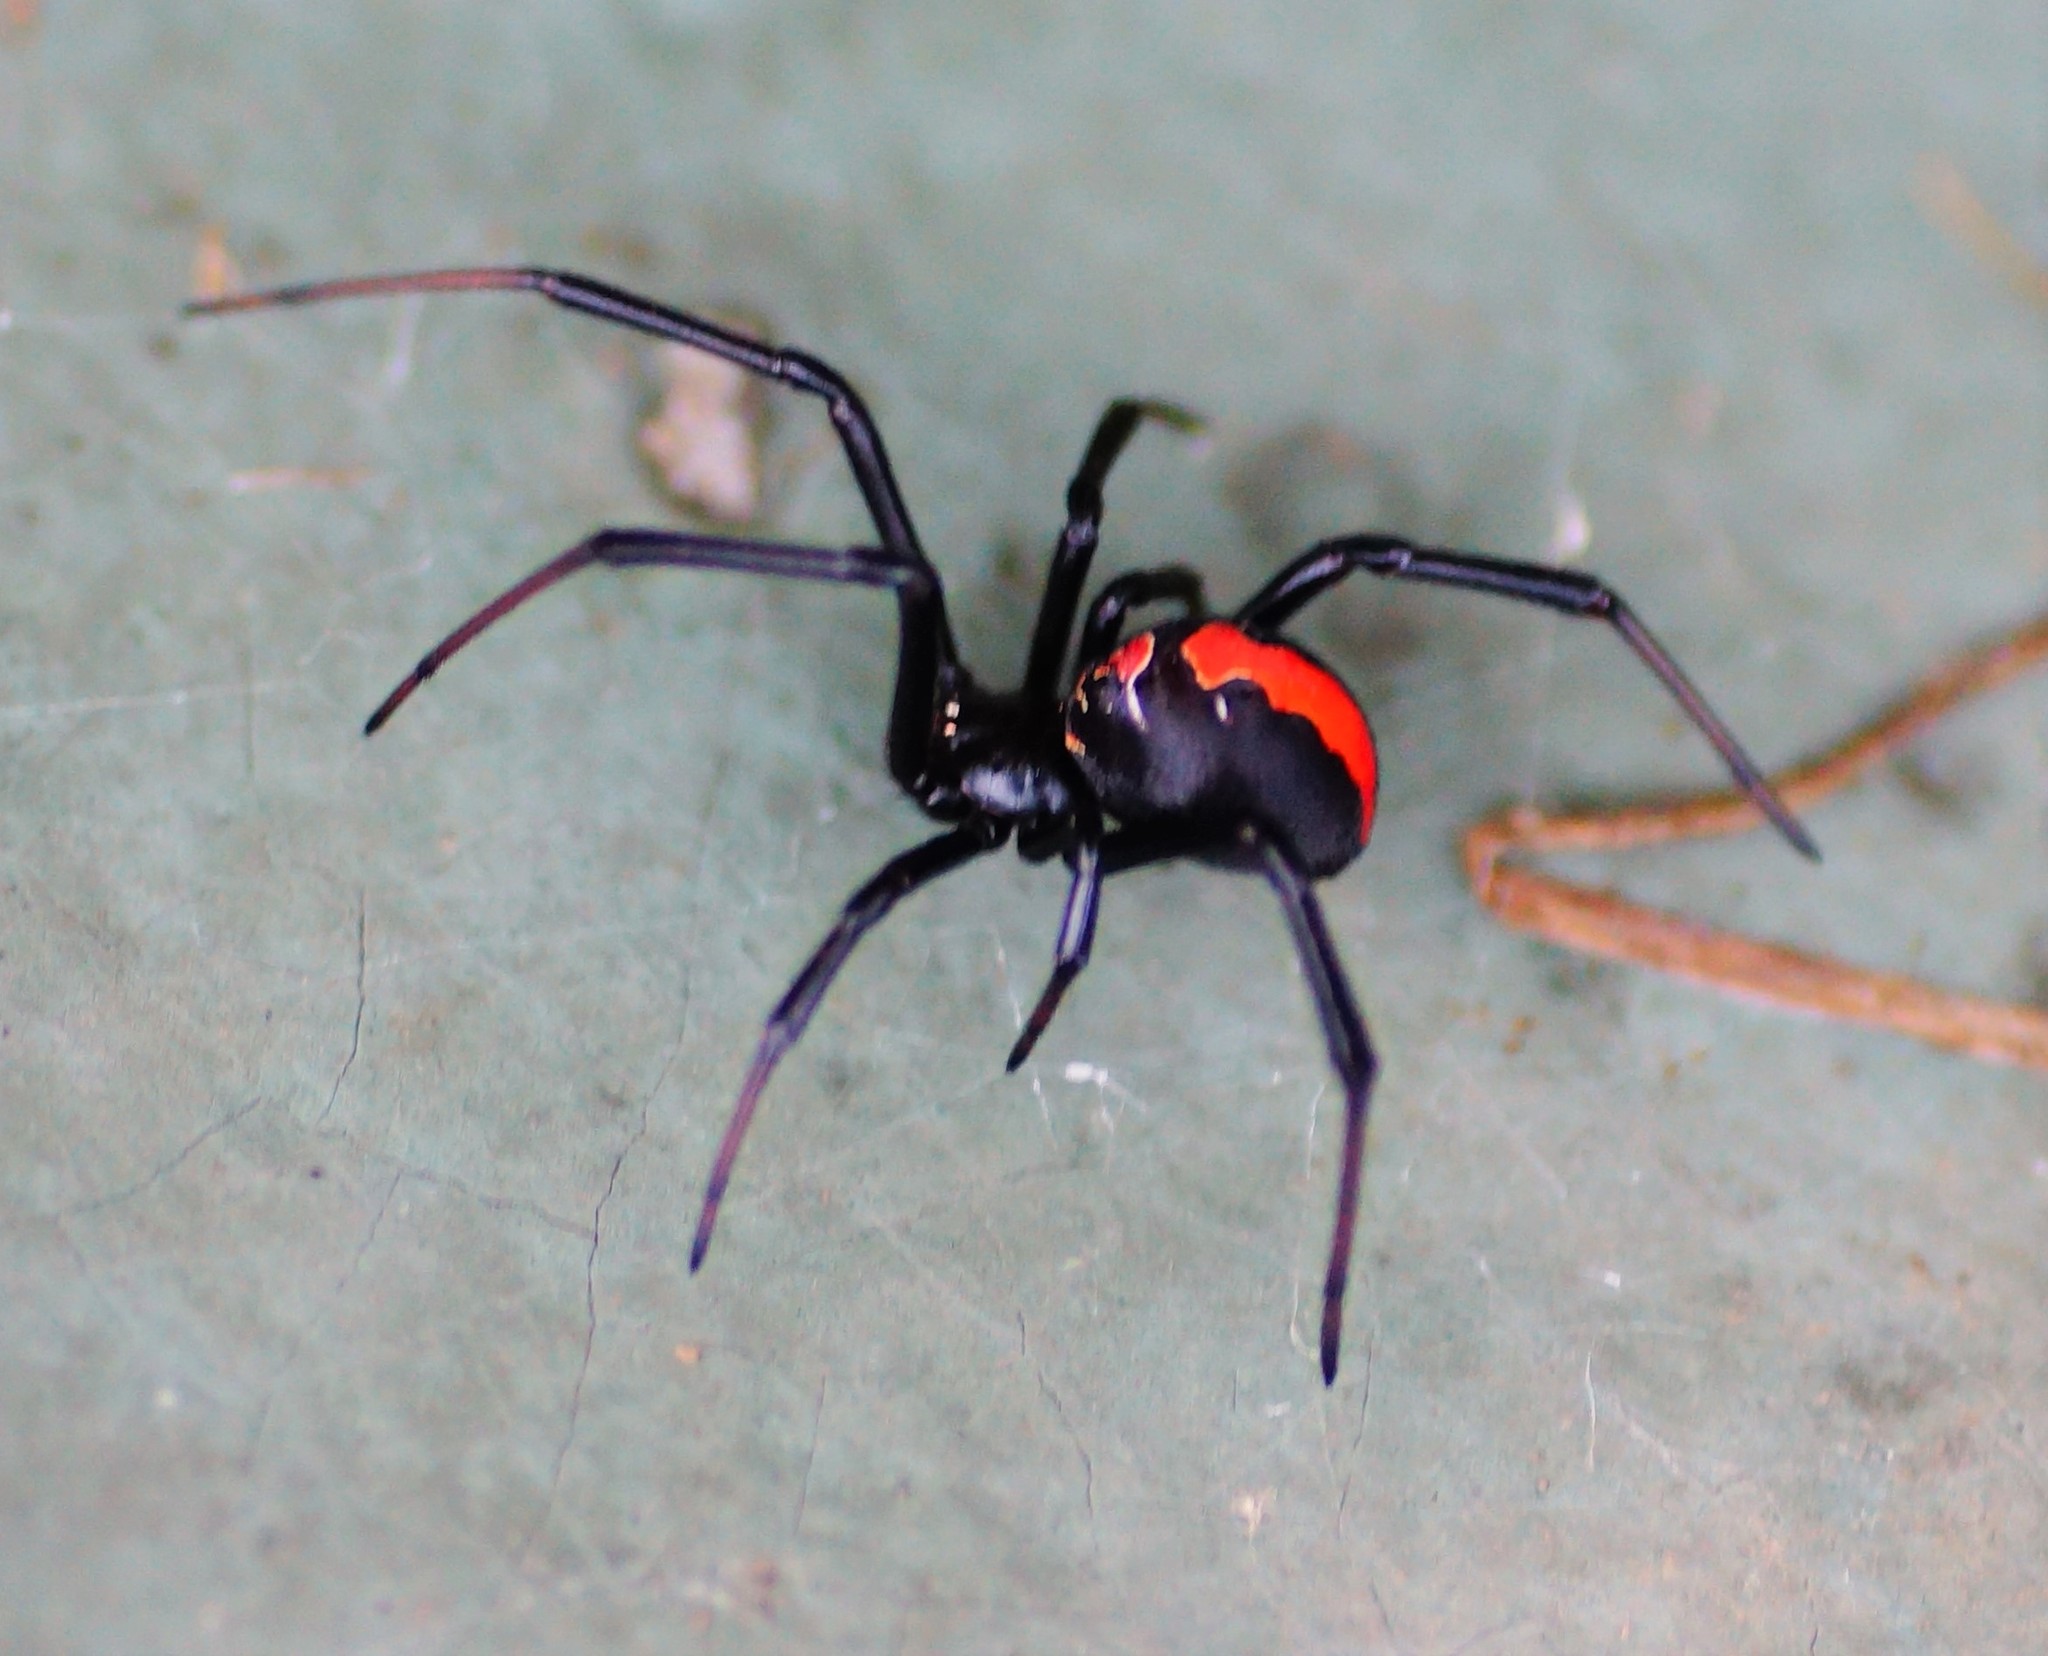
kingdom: Animalia
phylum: Arthropoda
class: Arachnida
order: Araneae
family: Theridiidae
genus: Latrodectus
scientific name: Latrodectus hasselti
